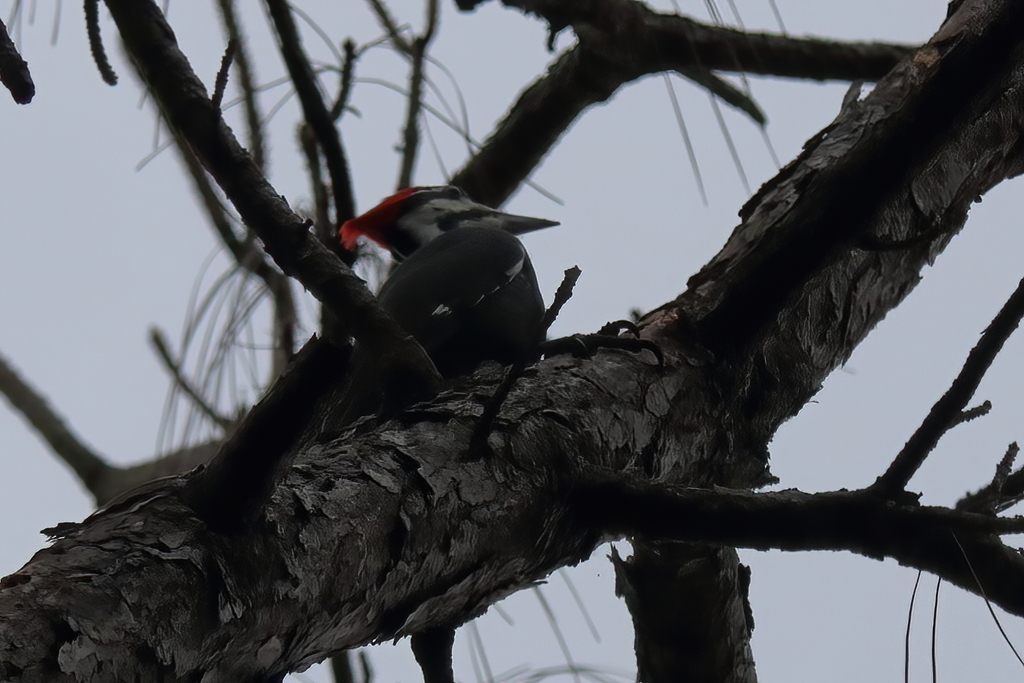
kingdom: Animalia
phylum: Chordata
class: Aves
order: Piciformes
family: Picidae
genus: Dryocopus
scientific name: Dryocopus pileatus
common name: Pileated woodpecker
